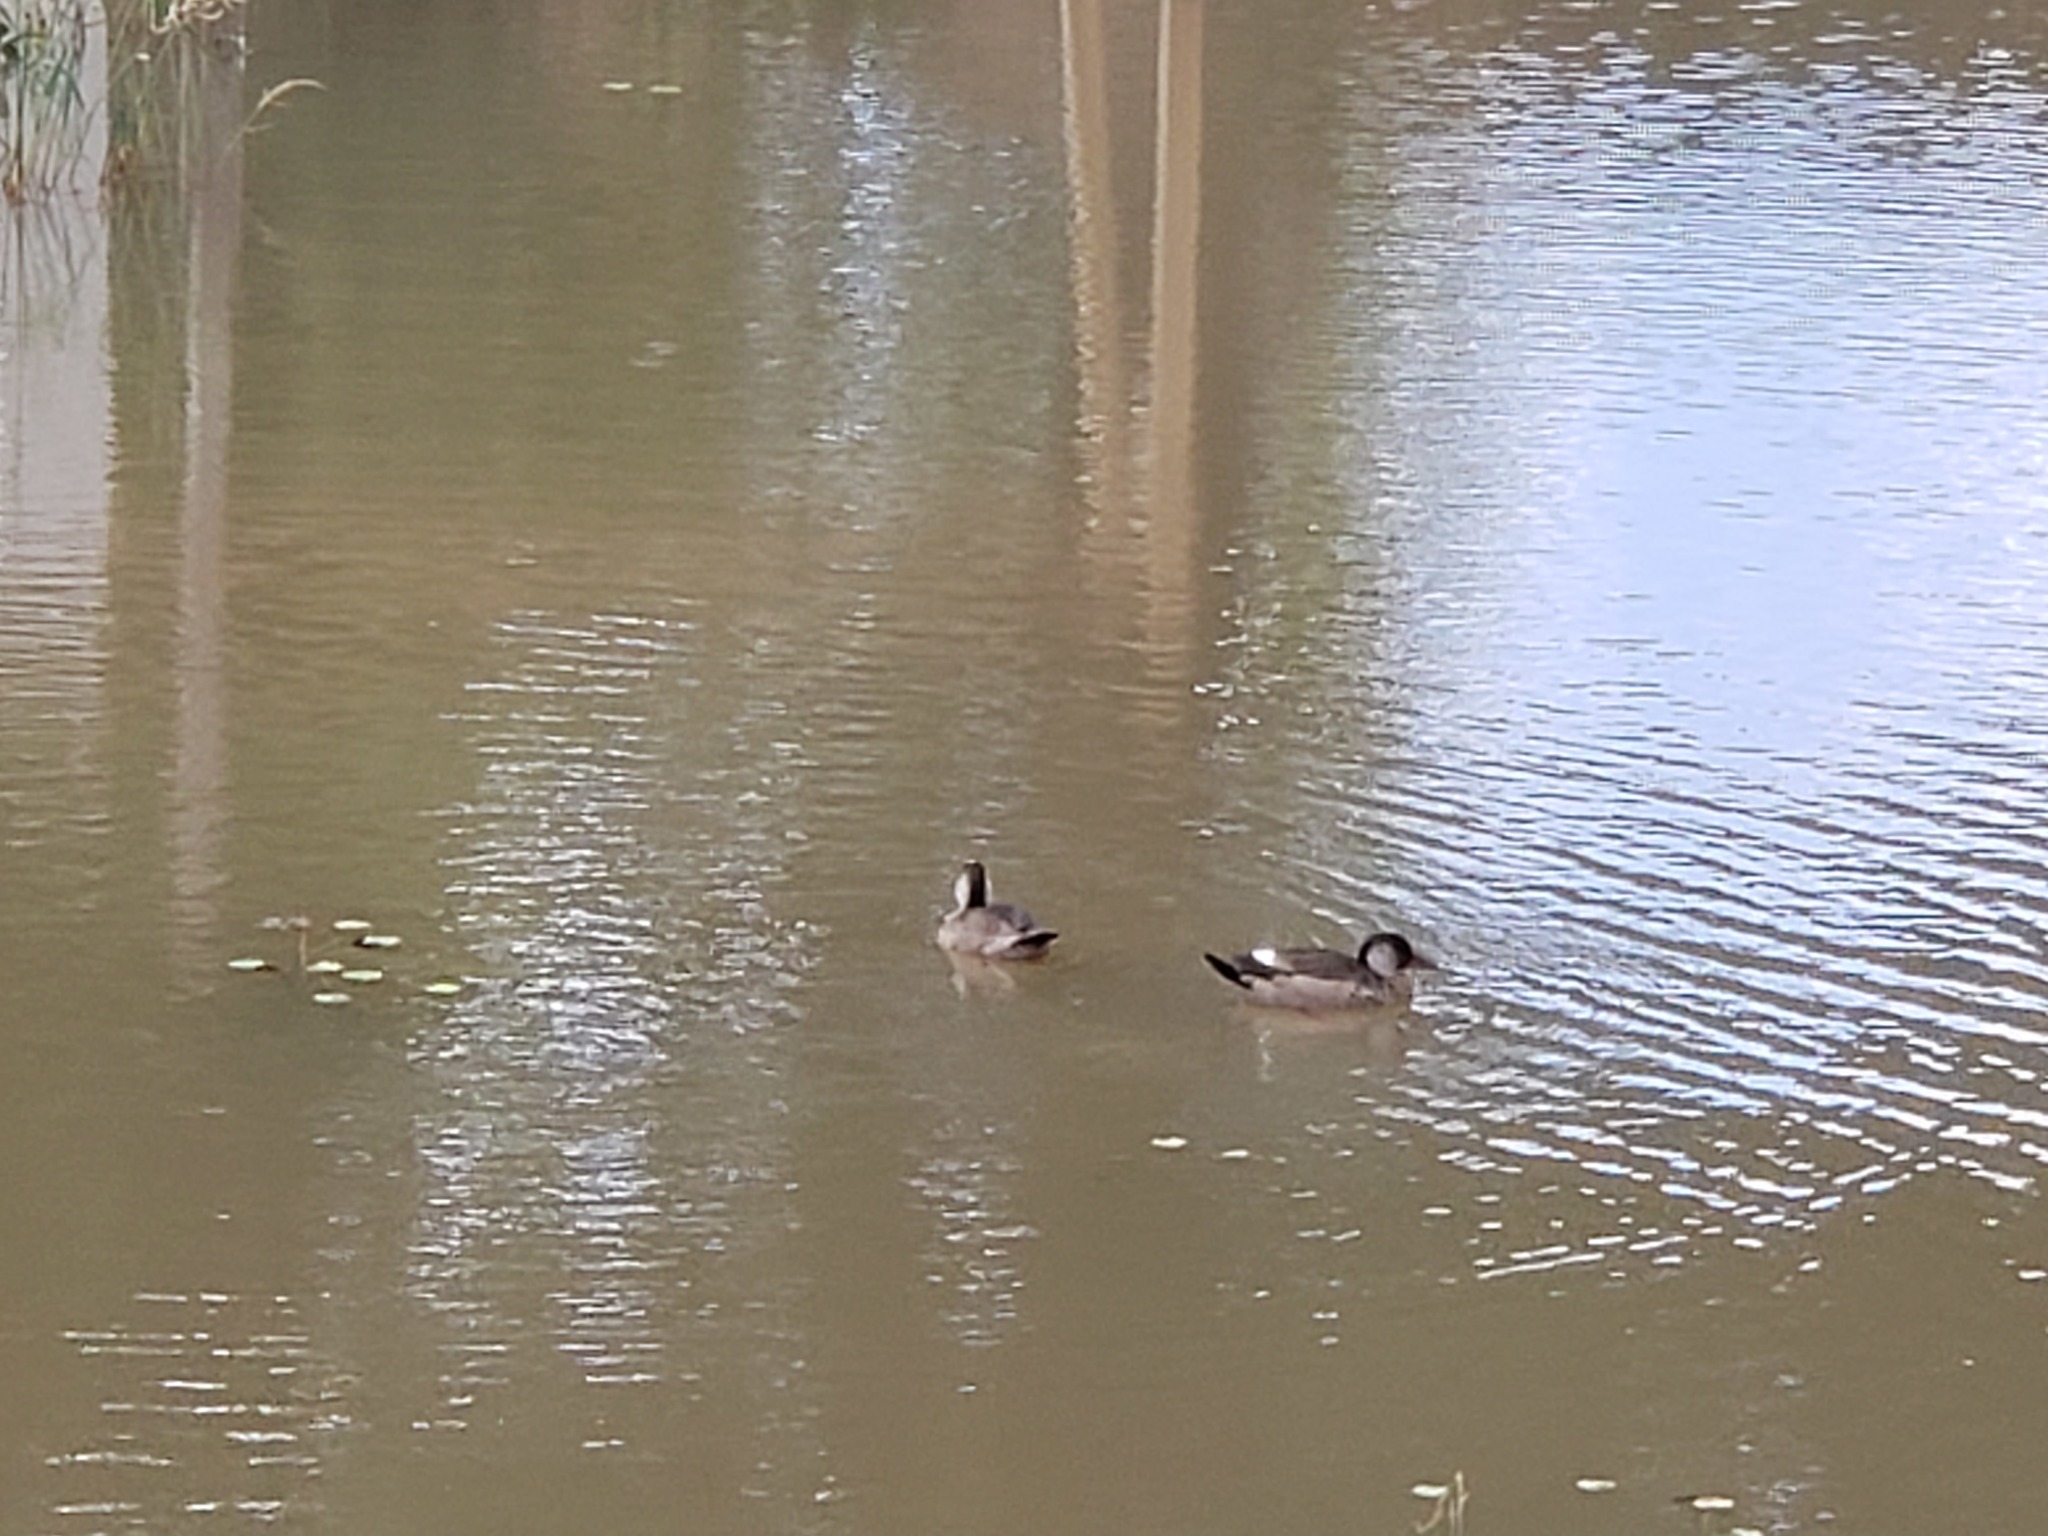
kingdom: Animalia
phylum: Chordata
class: Aves
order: Anseriformes
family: Anatidae
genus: Amazonetta
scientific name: Amazonetta brasiliensis
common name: Brazilian teal
